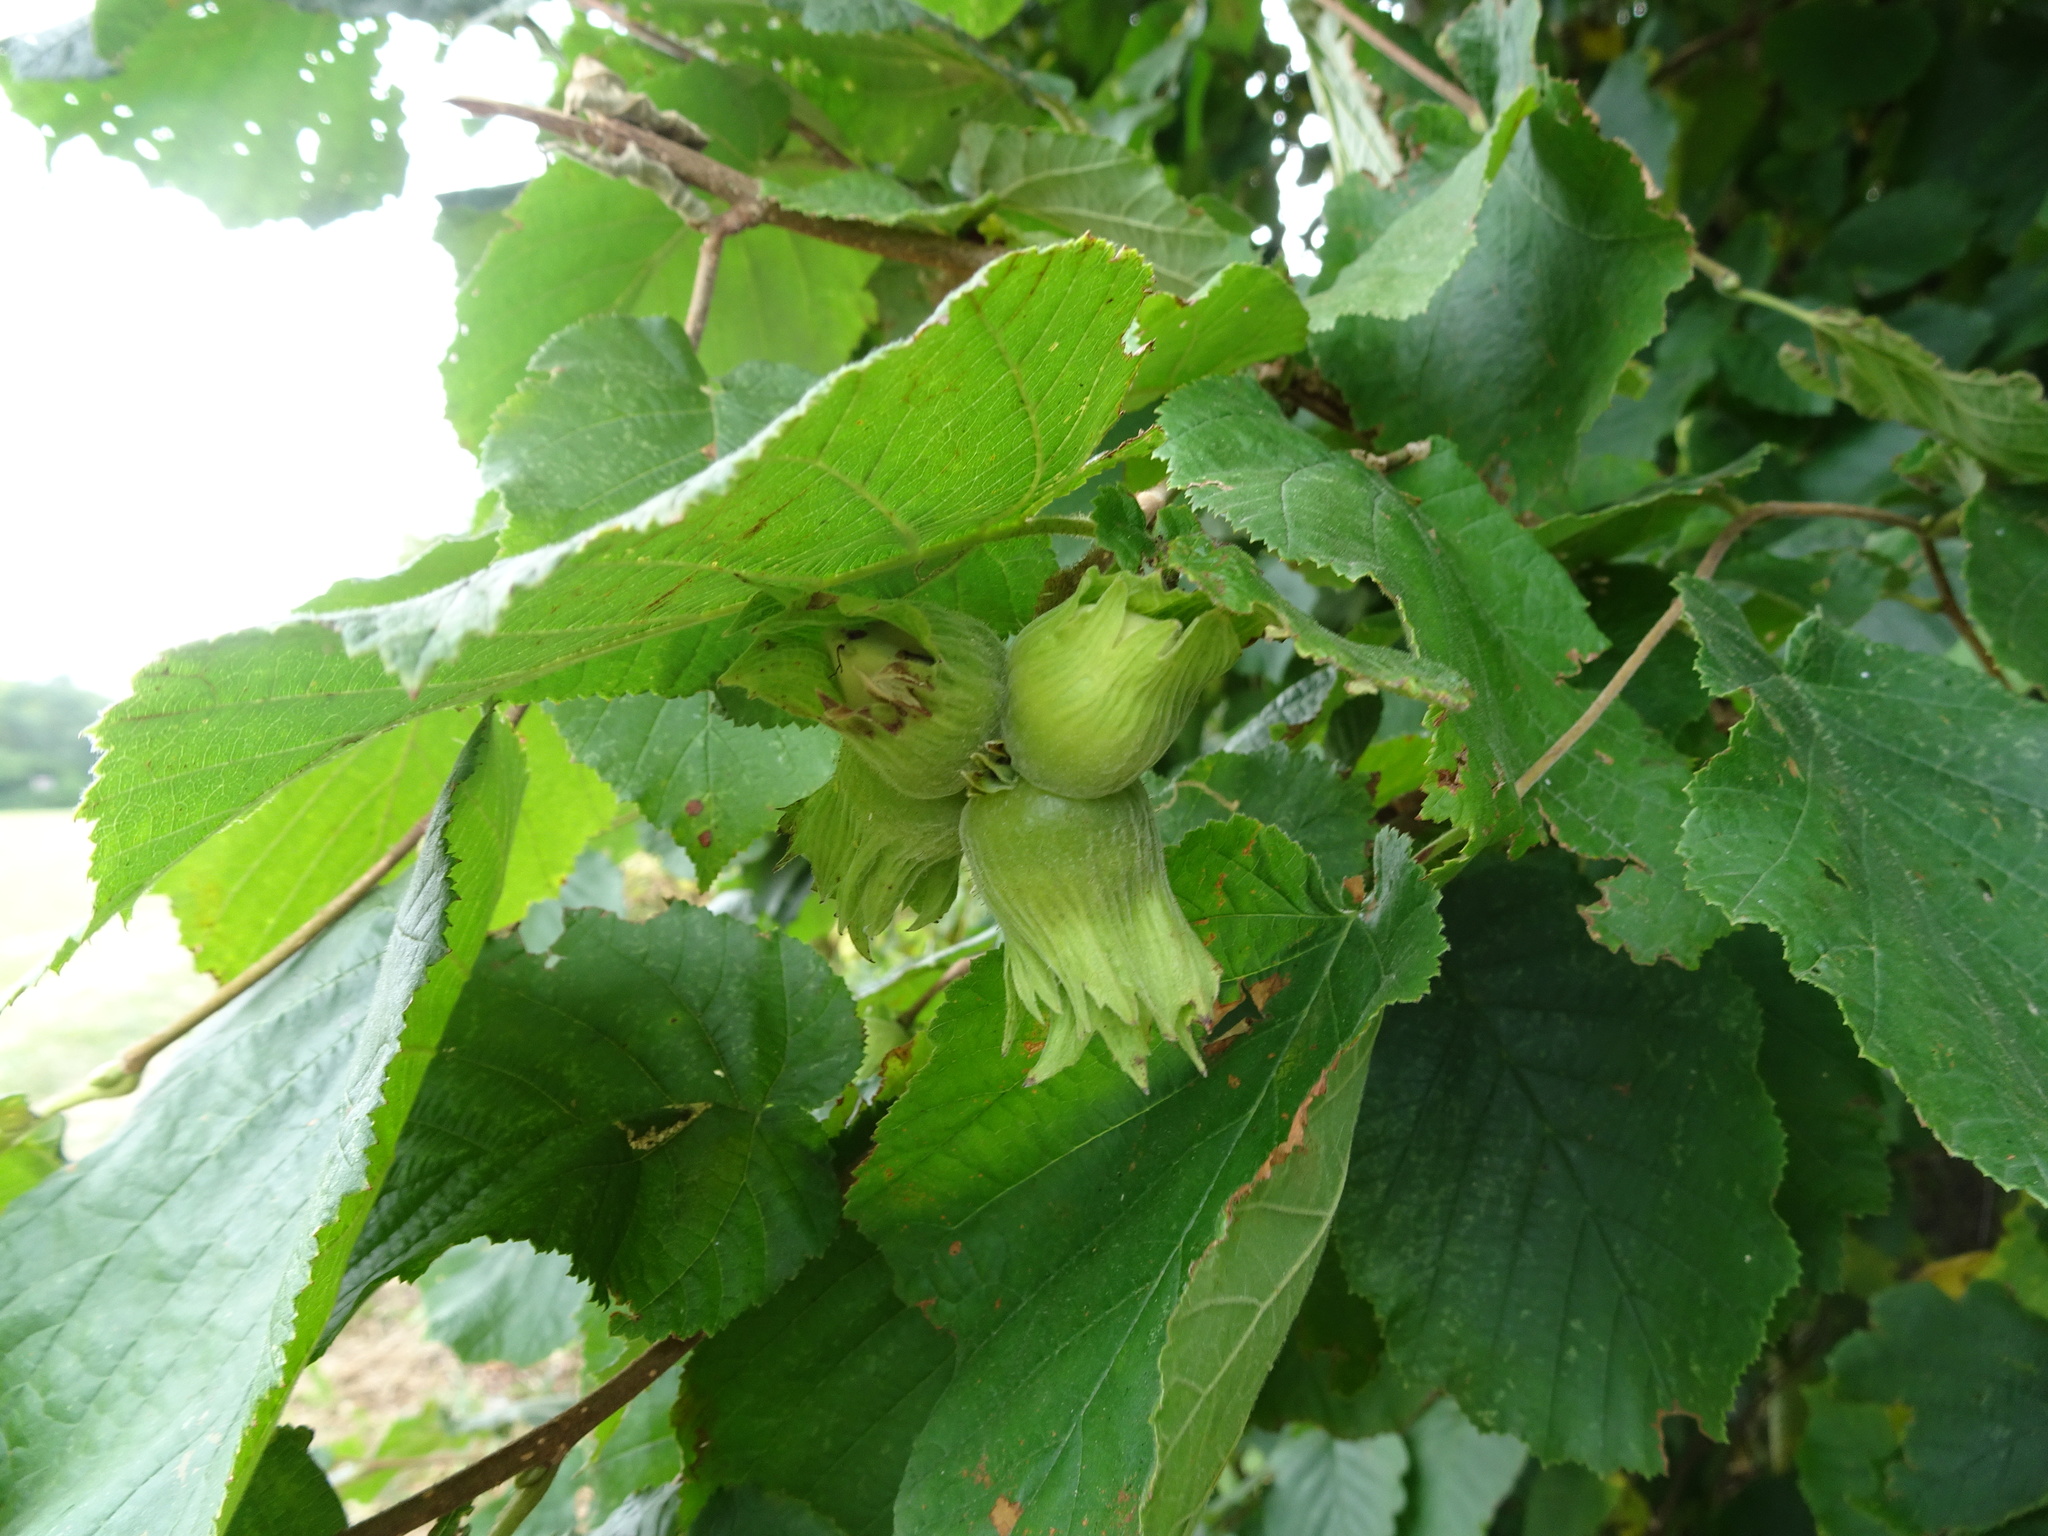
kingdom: Plantae
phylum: Tracheophyta
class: Magnoliopsida
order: Fagales
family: Betulaceae
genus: Corylus
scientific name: Corylus avellana
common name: European hazel
